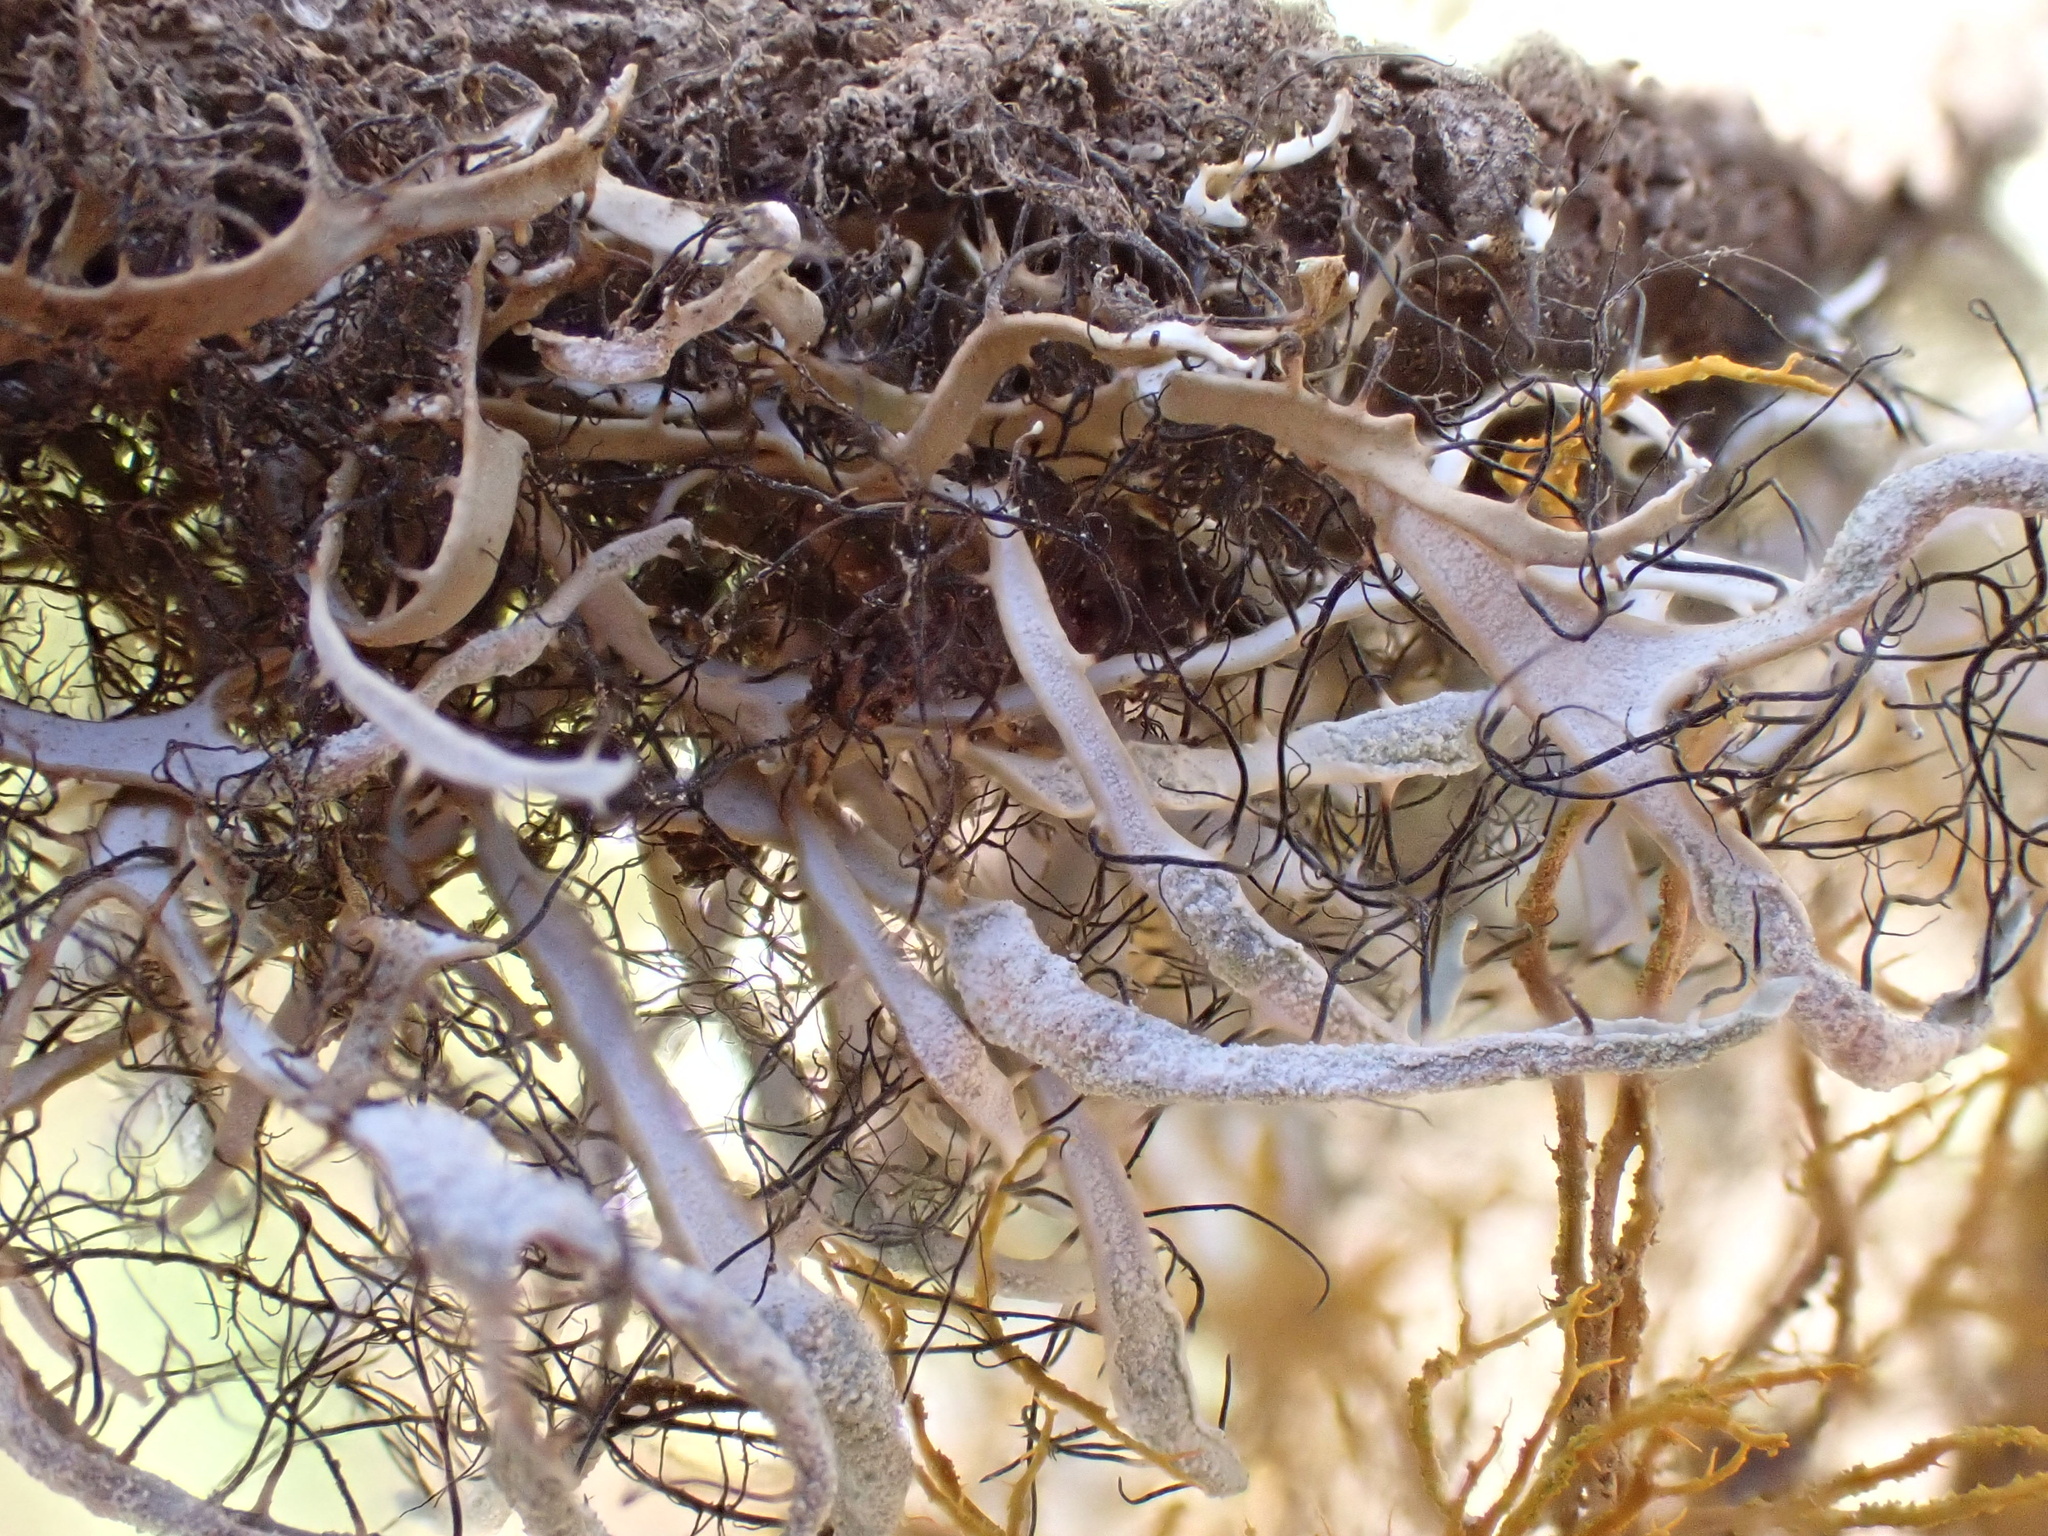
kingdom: Fungi
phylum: Ascomycota
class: Lecanoromycetes
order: Caliciales
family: Physciaceae
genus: Leucodermia
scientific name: Leucodermia leucomelos
